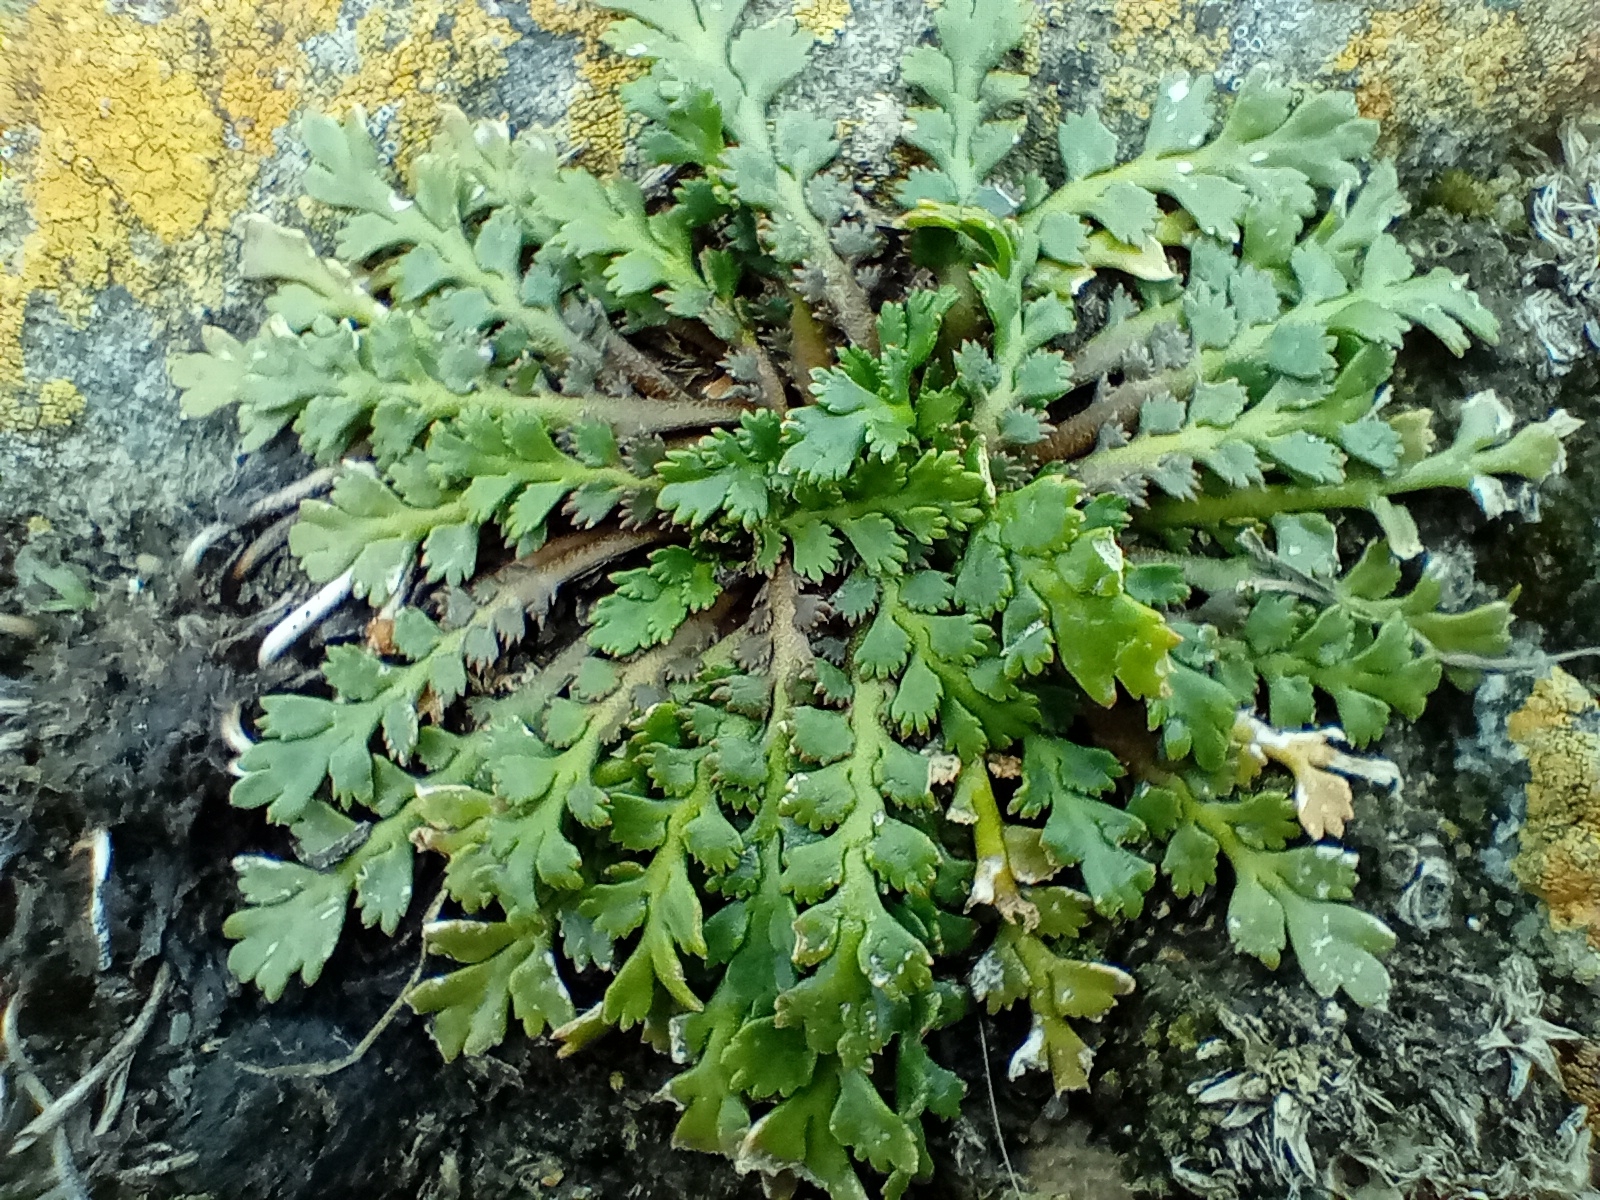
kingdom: Plantae
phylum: Tracheophyta
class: Magnoliopsida
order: Brassicales
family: Brassicaceae
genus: Lepidium
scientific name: Lepidium tenuicaule
